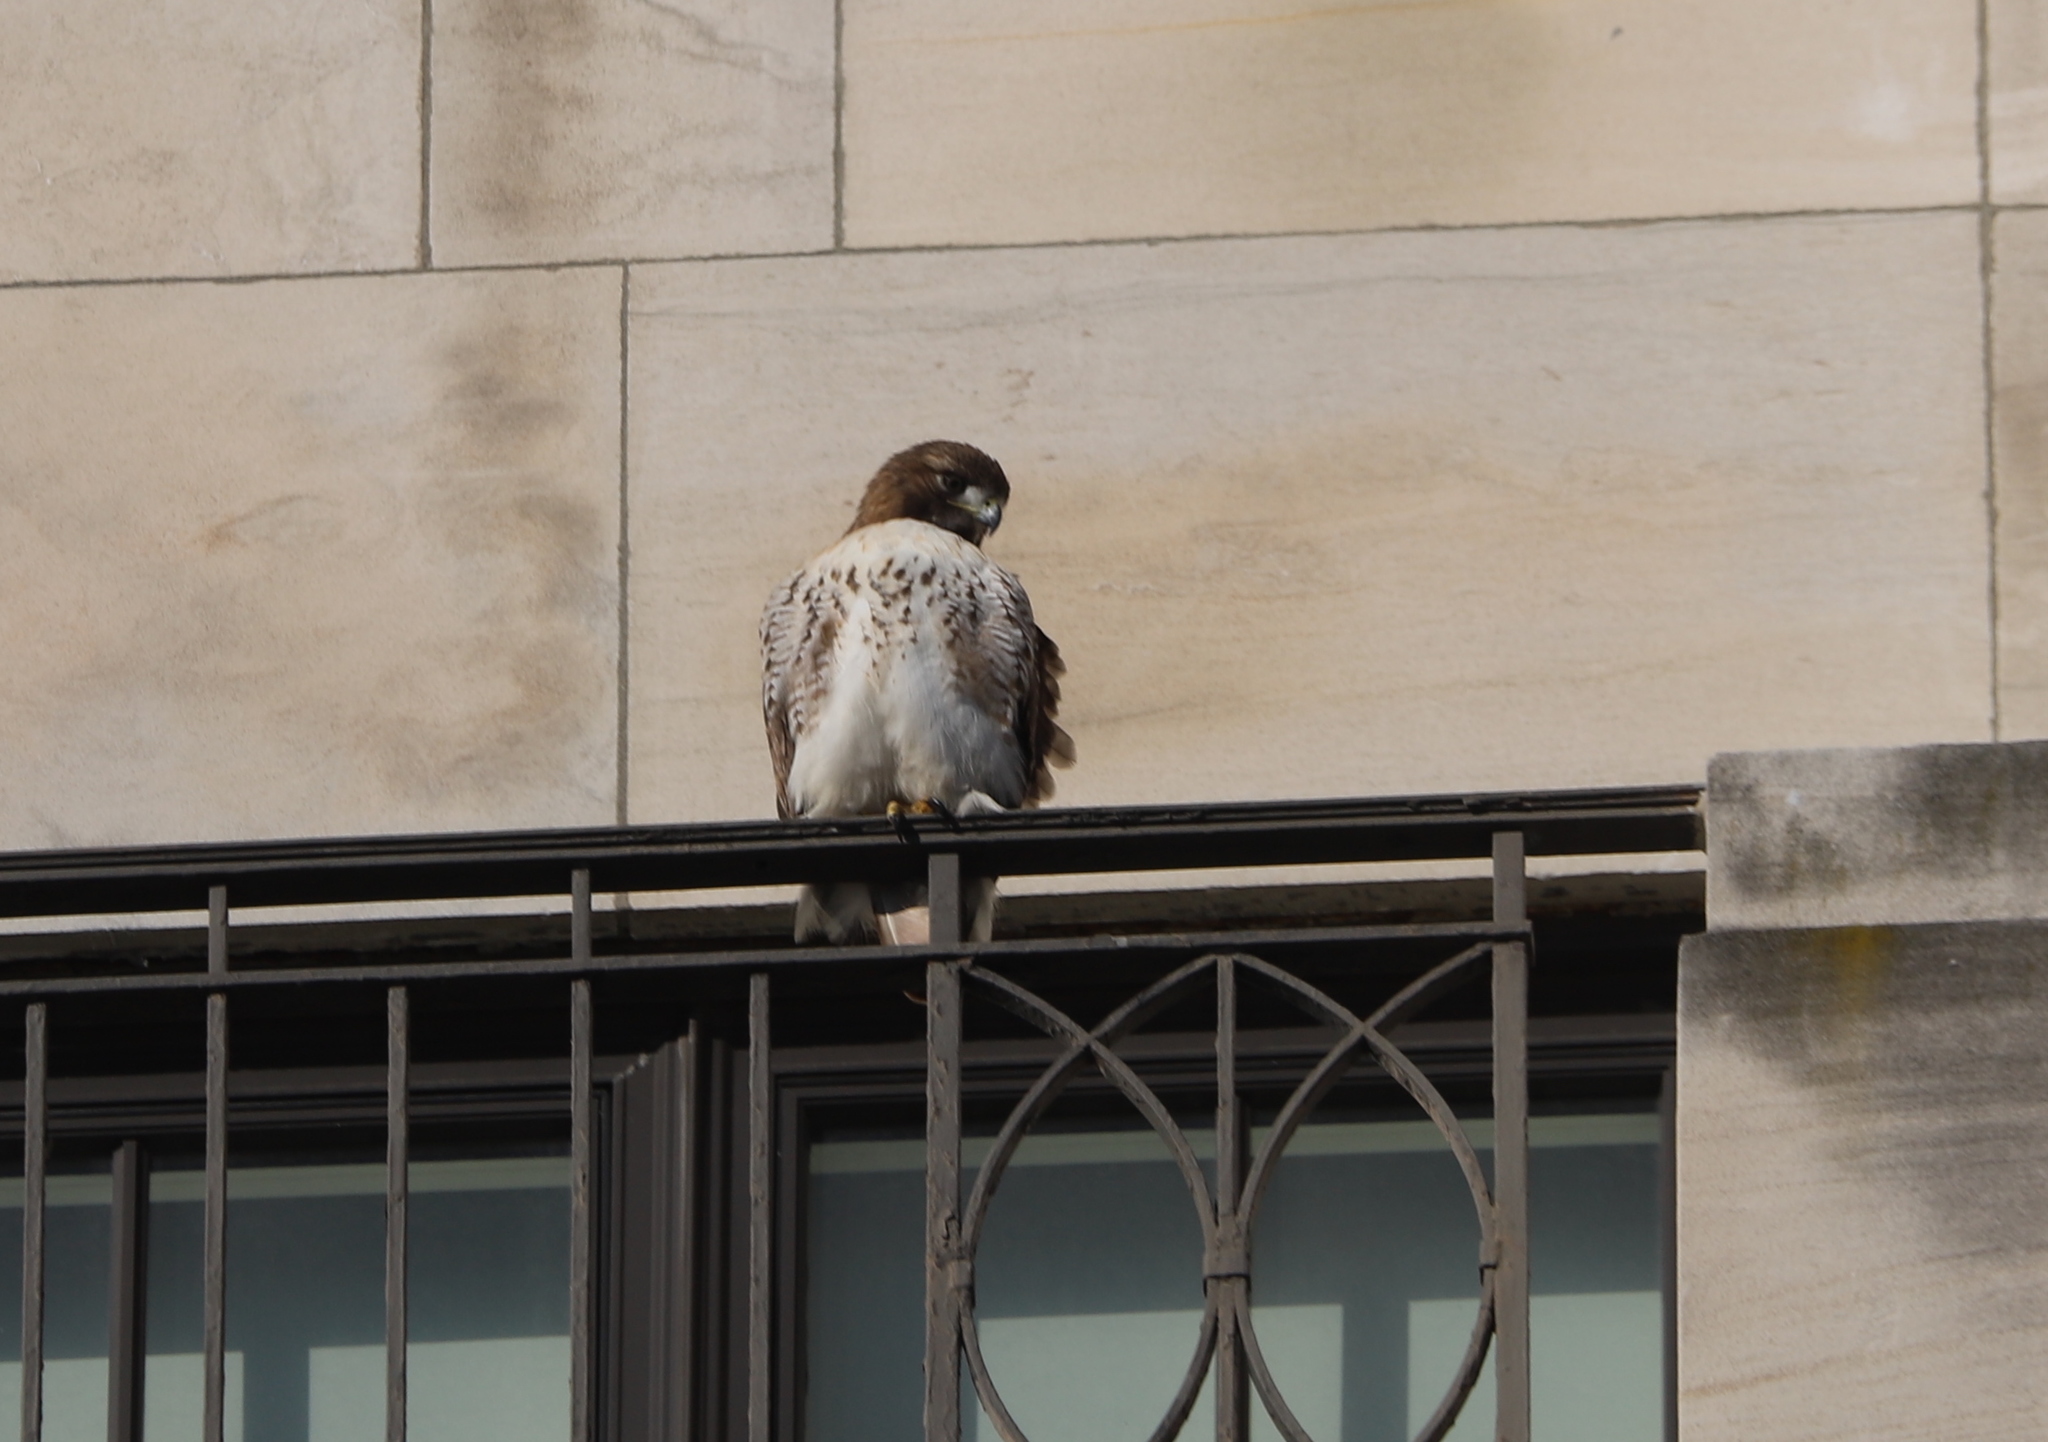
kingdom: Animalia
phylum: Chordata
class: Aves
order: Accipitriformes
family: Accipitridae
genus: Buteo
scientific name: Buteo jamaicensis
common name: Red-tailed hawk
